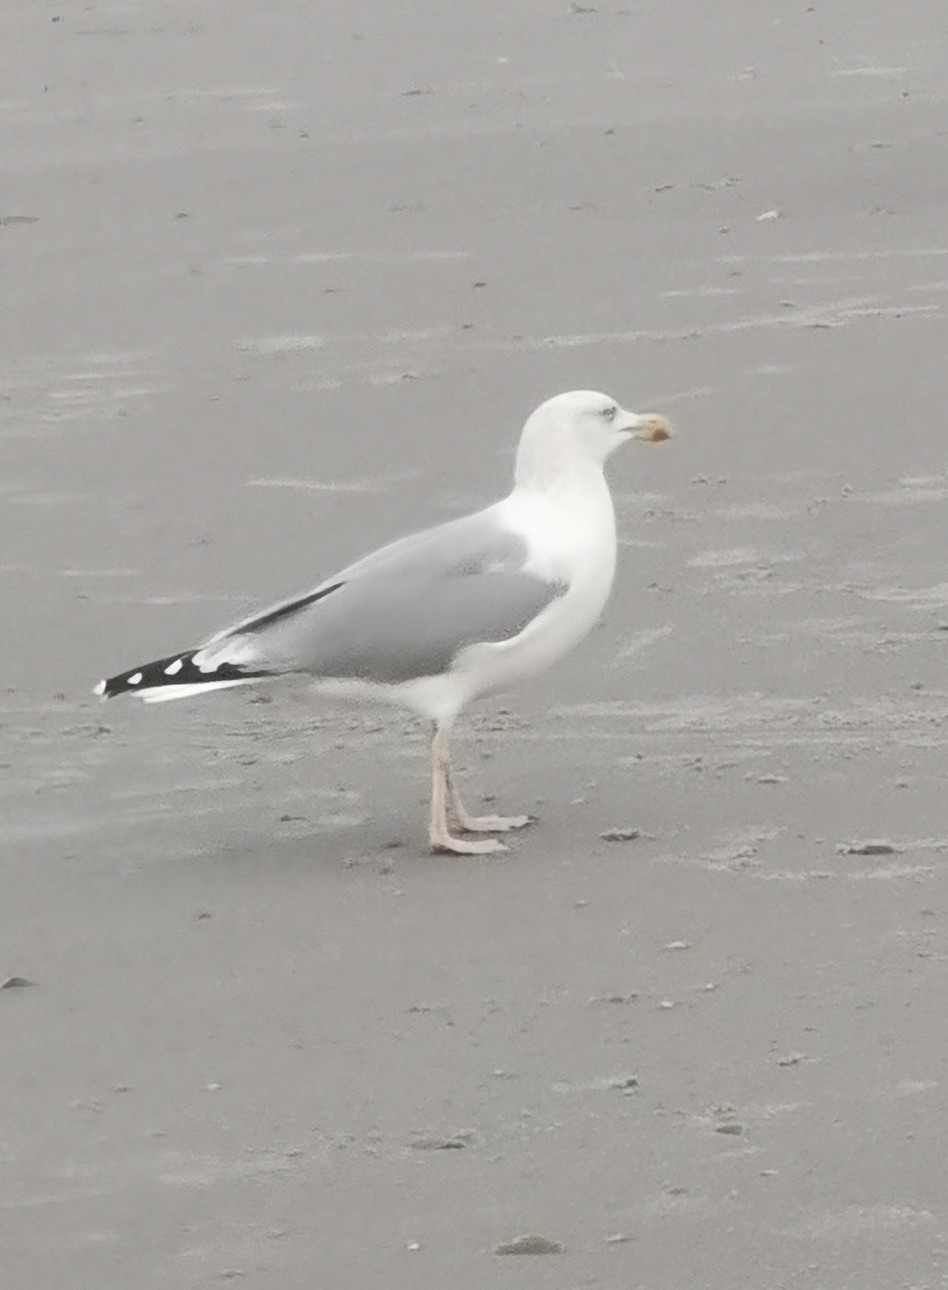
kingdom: Animalia
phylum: Chordata
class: Aves
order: Charadriiformes
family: Laridae
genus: Larus
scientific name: Larus argentatus
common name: Herring gull
